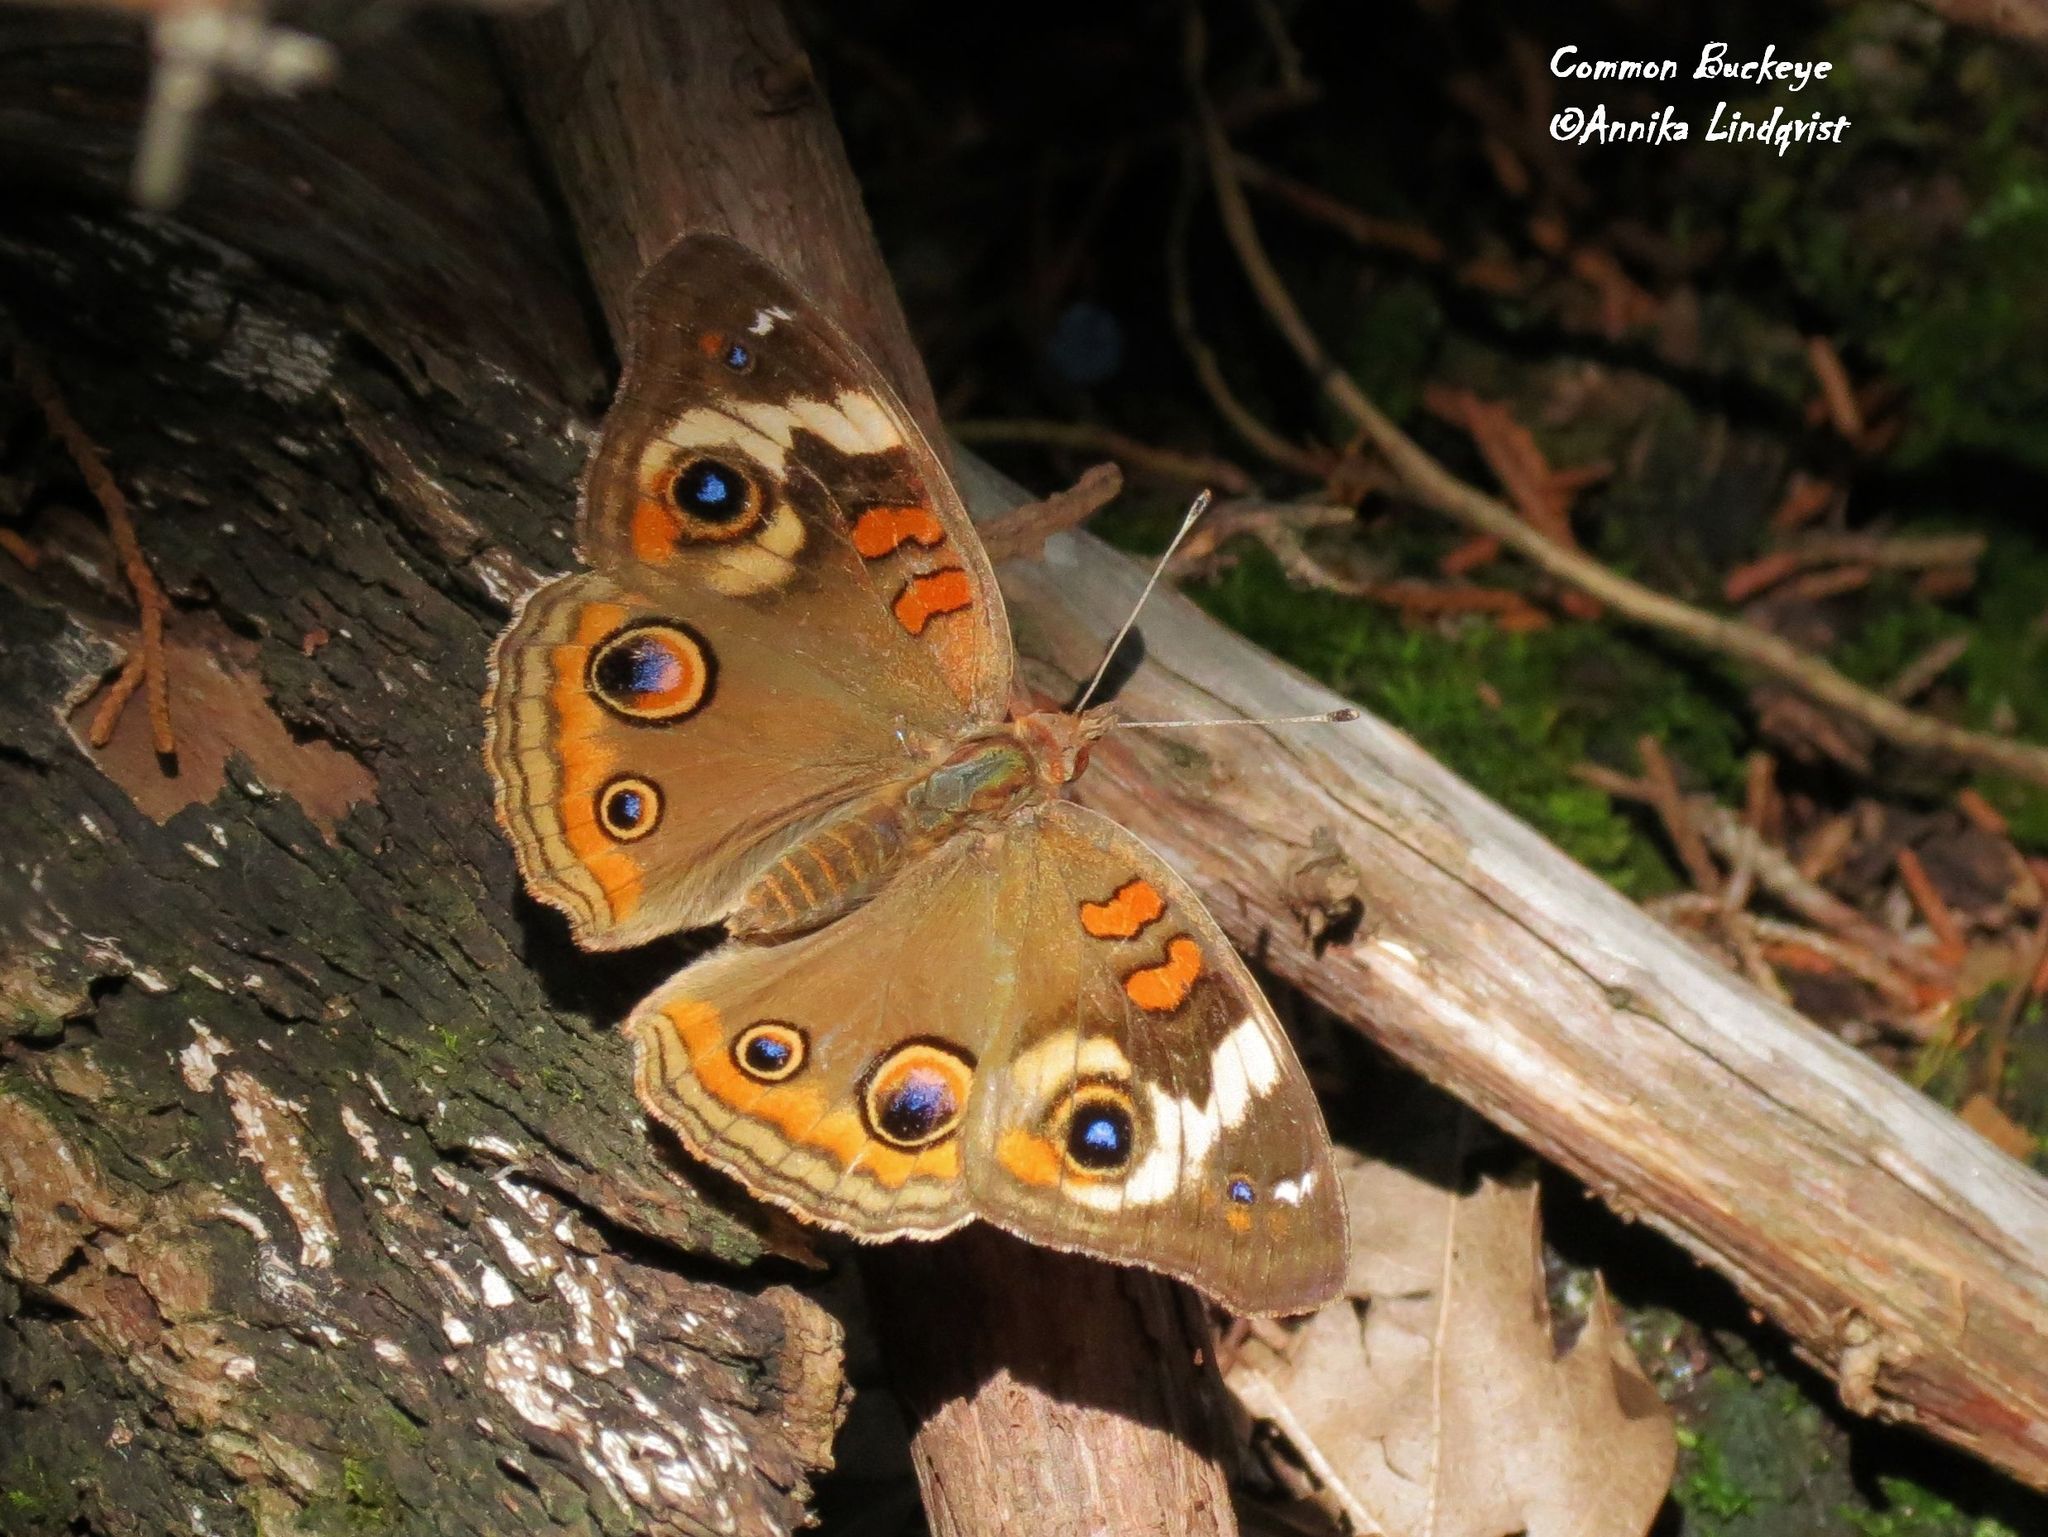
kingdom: Animalia
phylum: Arthropoda
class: Insecta
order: Lepidoptera
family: Nymphalidae
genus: Junonia
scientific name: Junonia coenia
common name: Common buckeye
